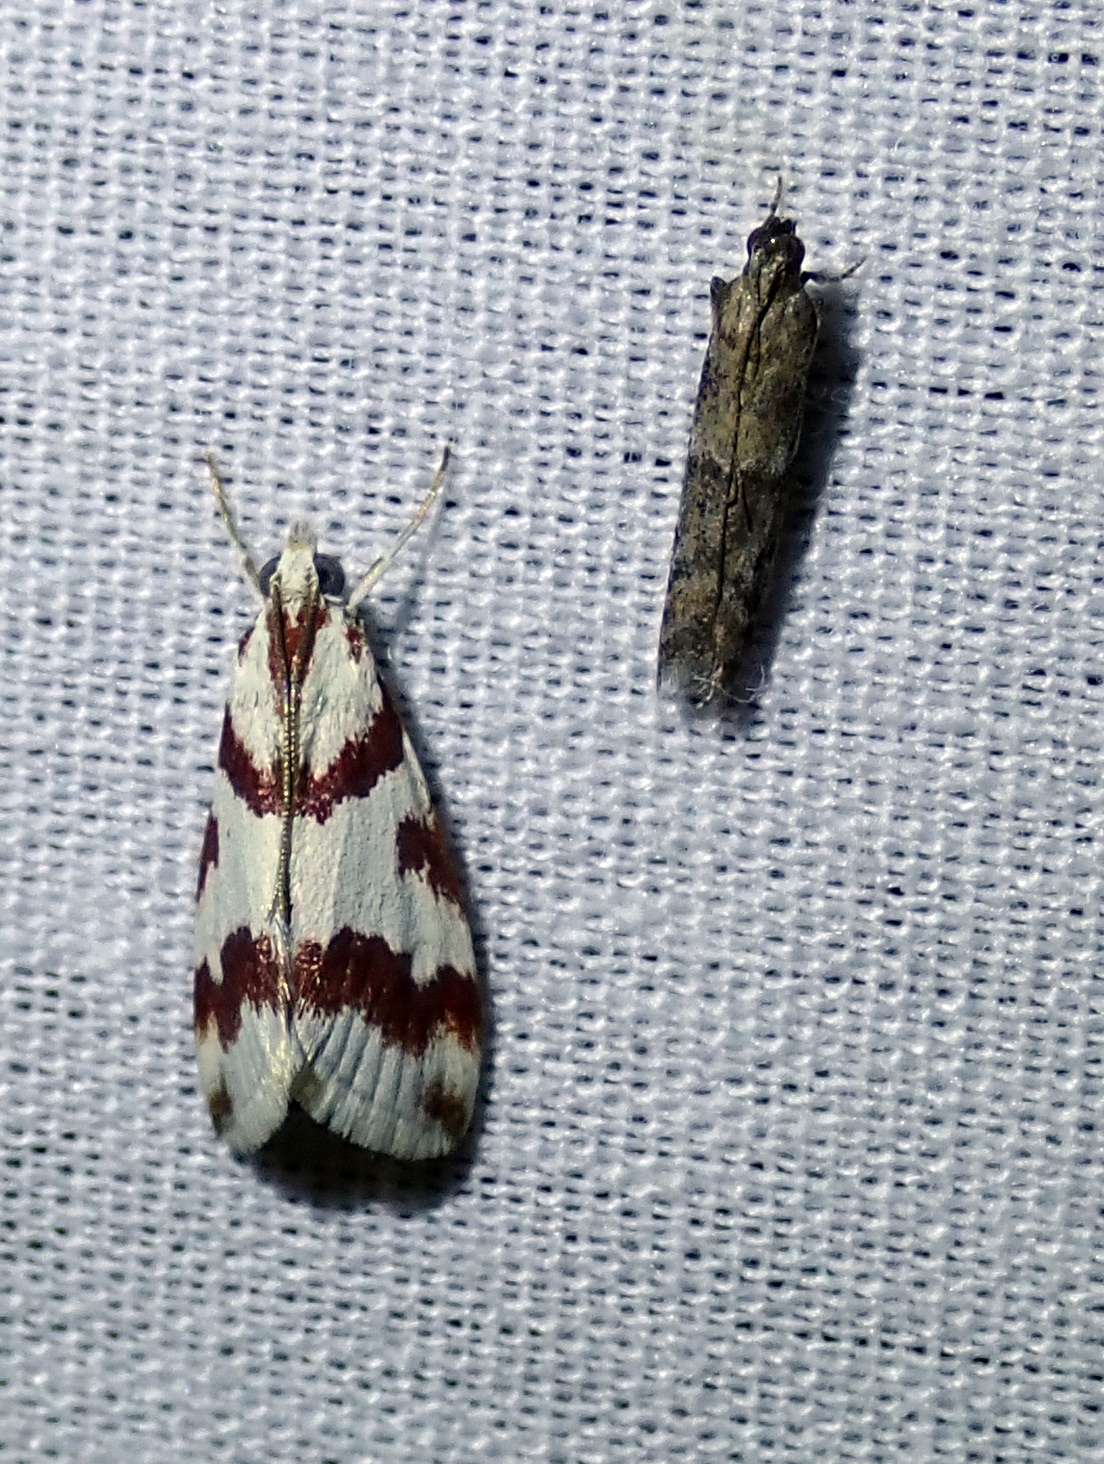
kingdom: Animalia
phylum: Arthropoda
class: Insecta
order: Lepidoptera
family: Crambidae
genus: Noctuelia
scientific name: Noctuelia Mimoschinia rufofascialis
